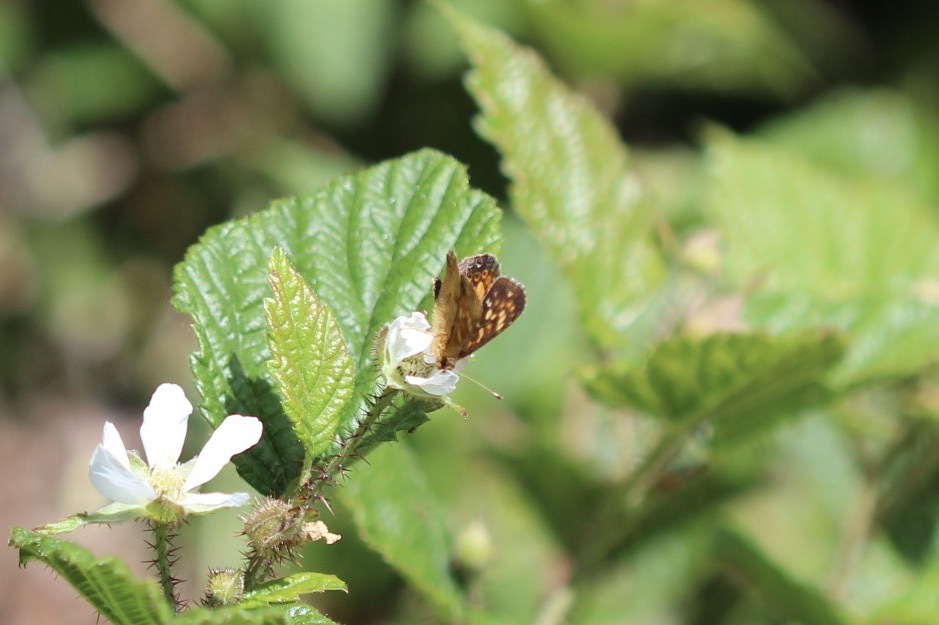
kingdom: Animalia
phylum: Arthropoda
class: Insecta
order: Lepidoptera
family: Nymphalidae
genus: Phyciodes
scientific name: Phyciodes tharos
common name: Pearl crescent
